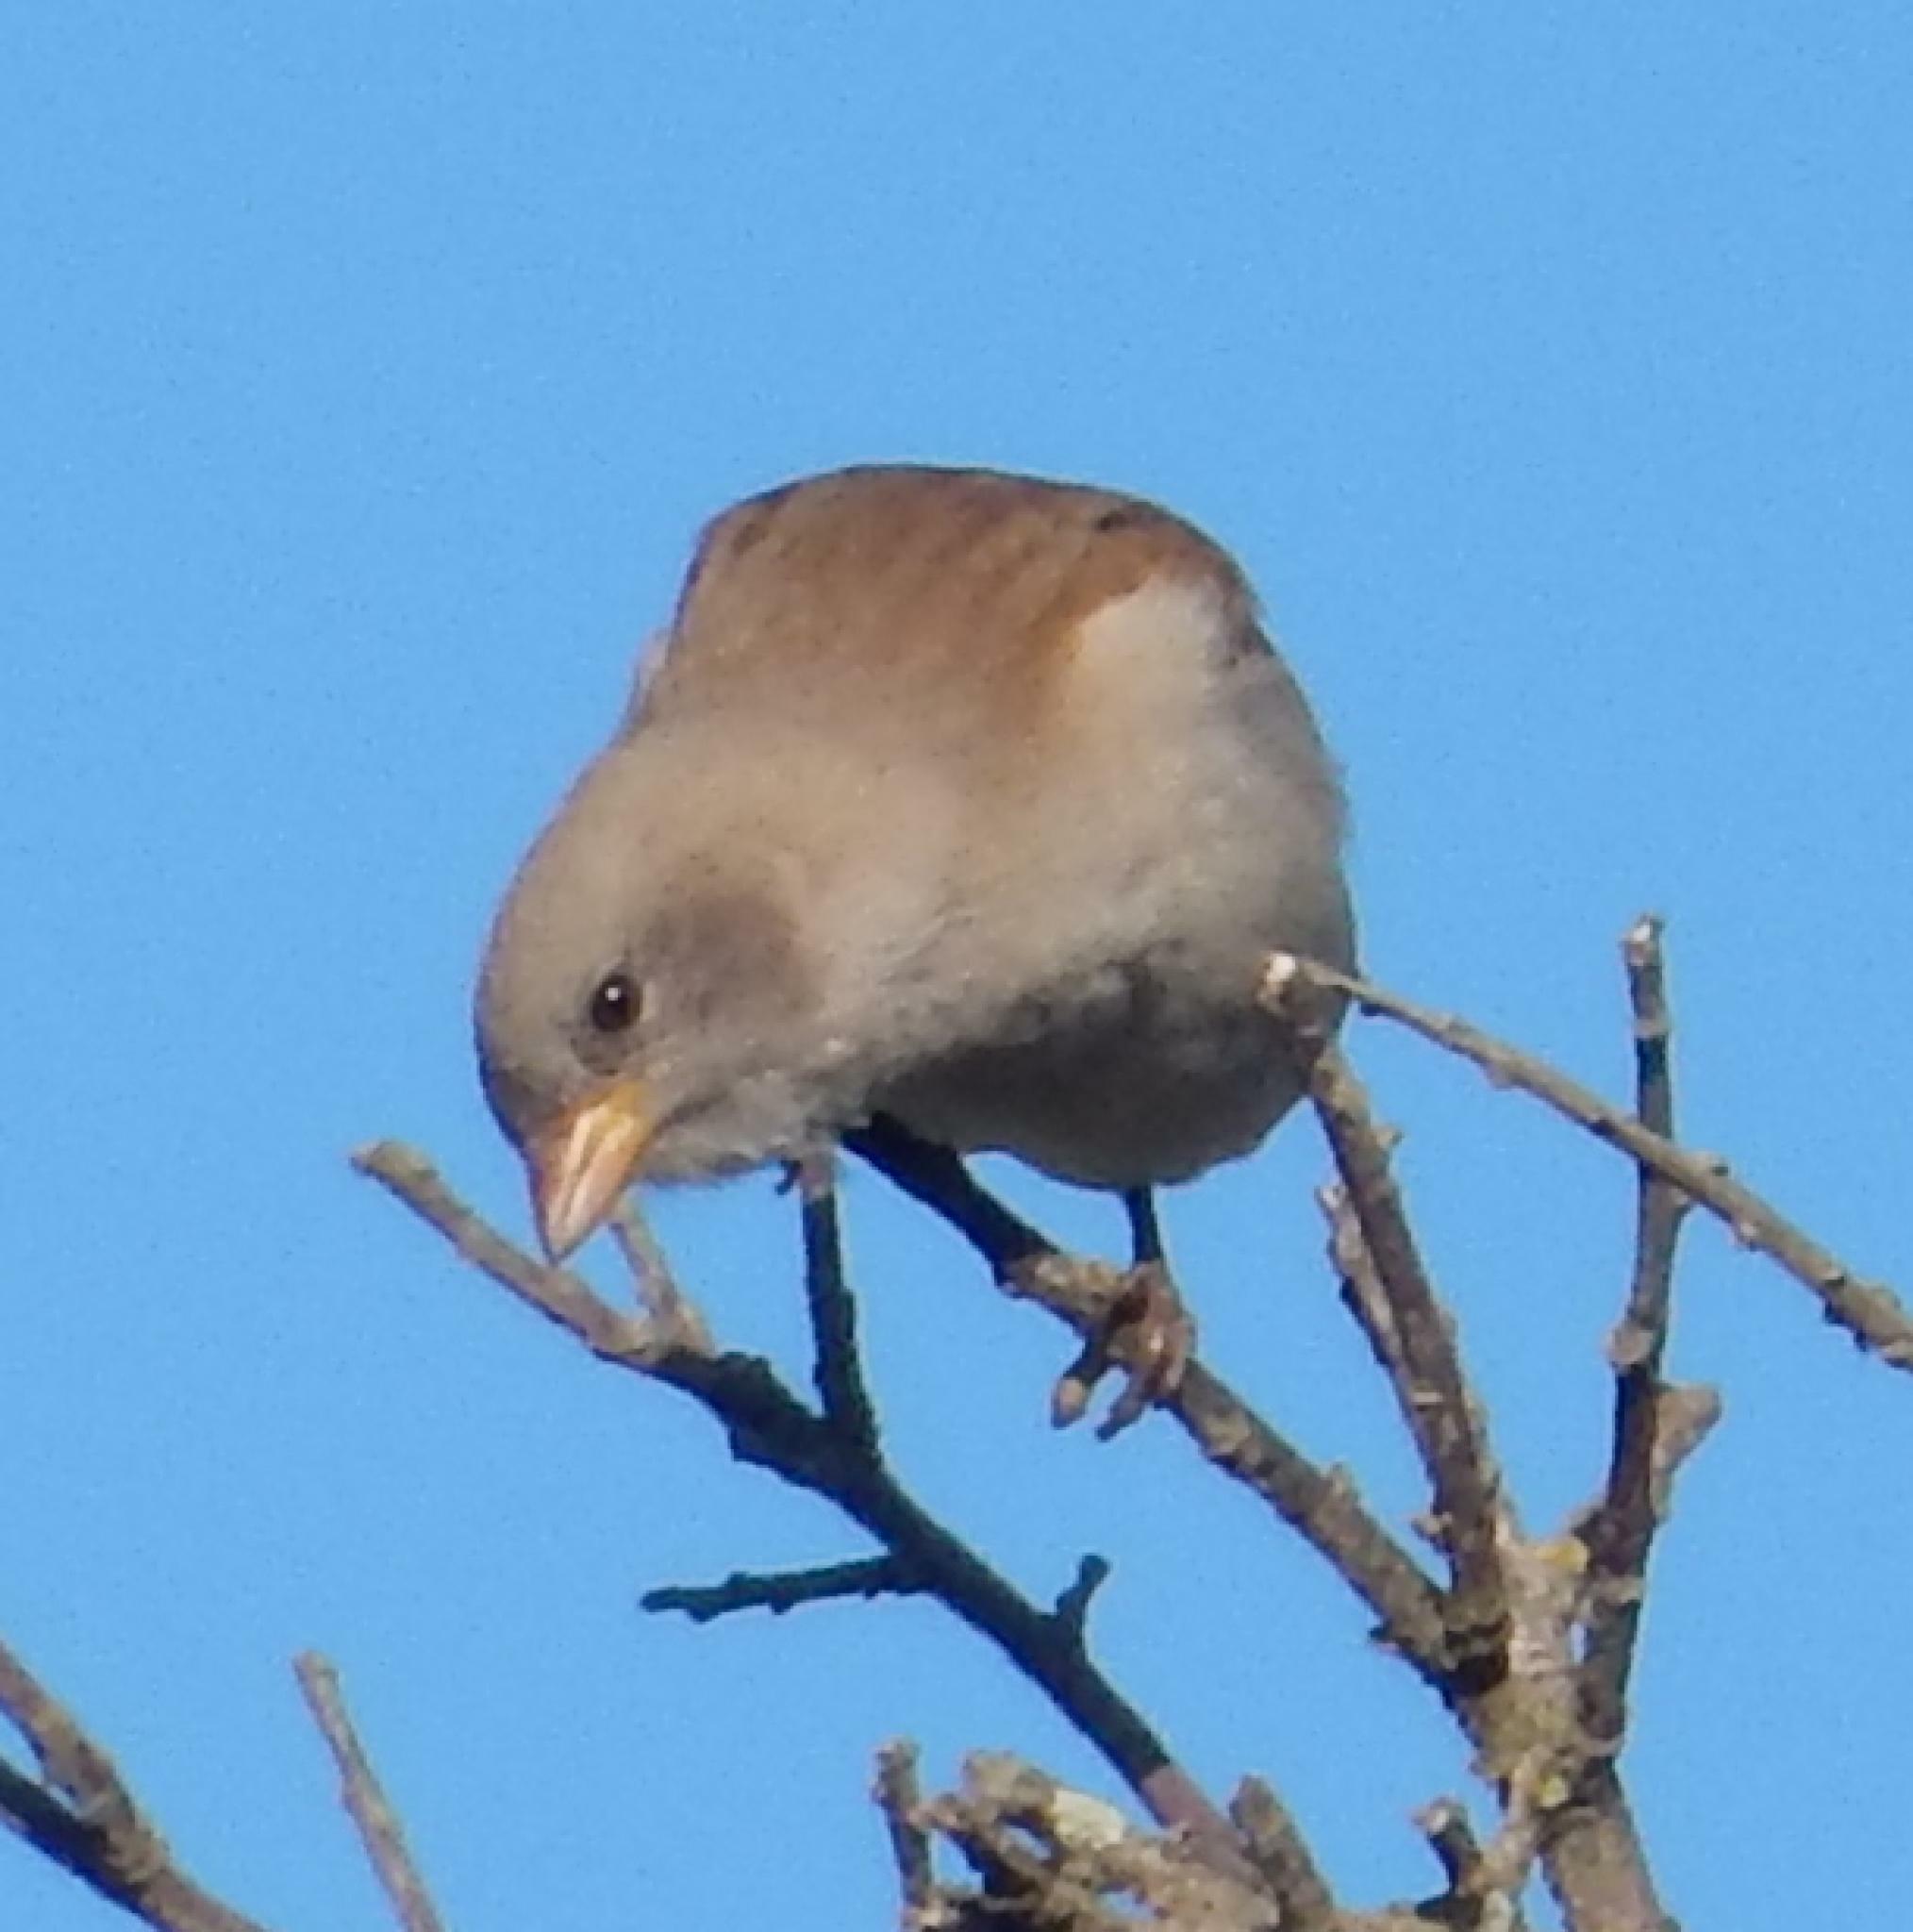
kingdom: Animalia
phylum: Chordata
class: Aves
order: Passeriformes
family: Passeridae
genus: Passer
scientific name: Passer diffusus
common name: Southern grey-headed sparrow
